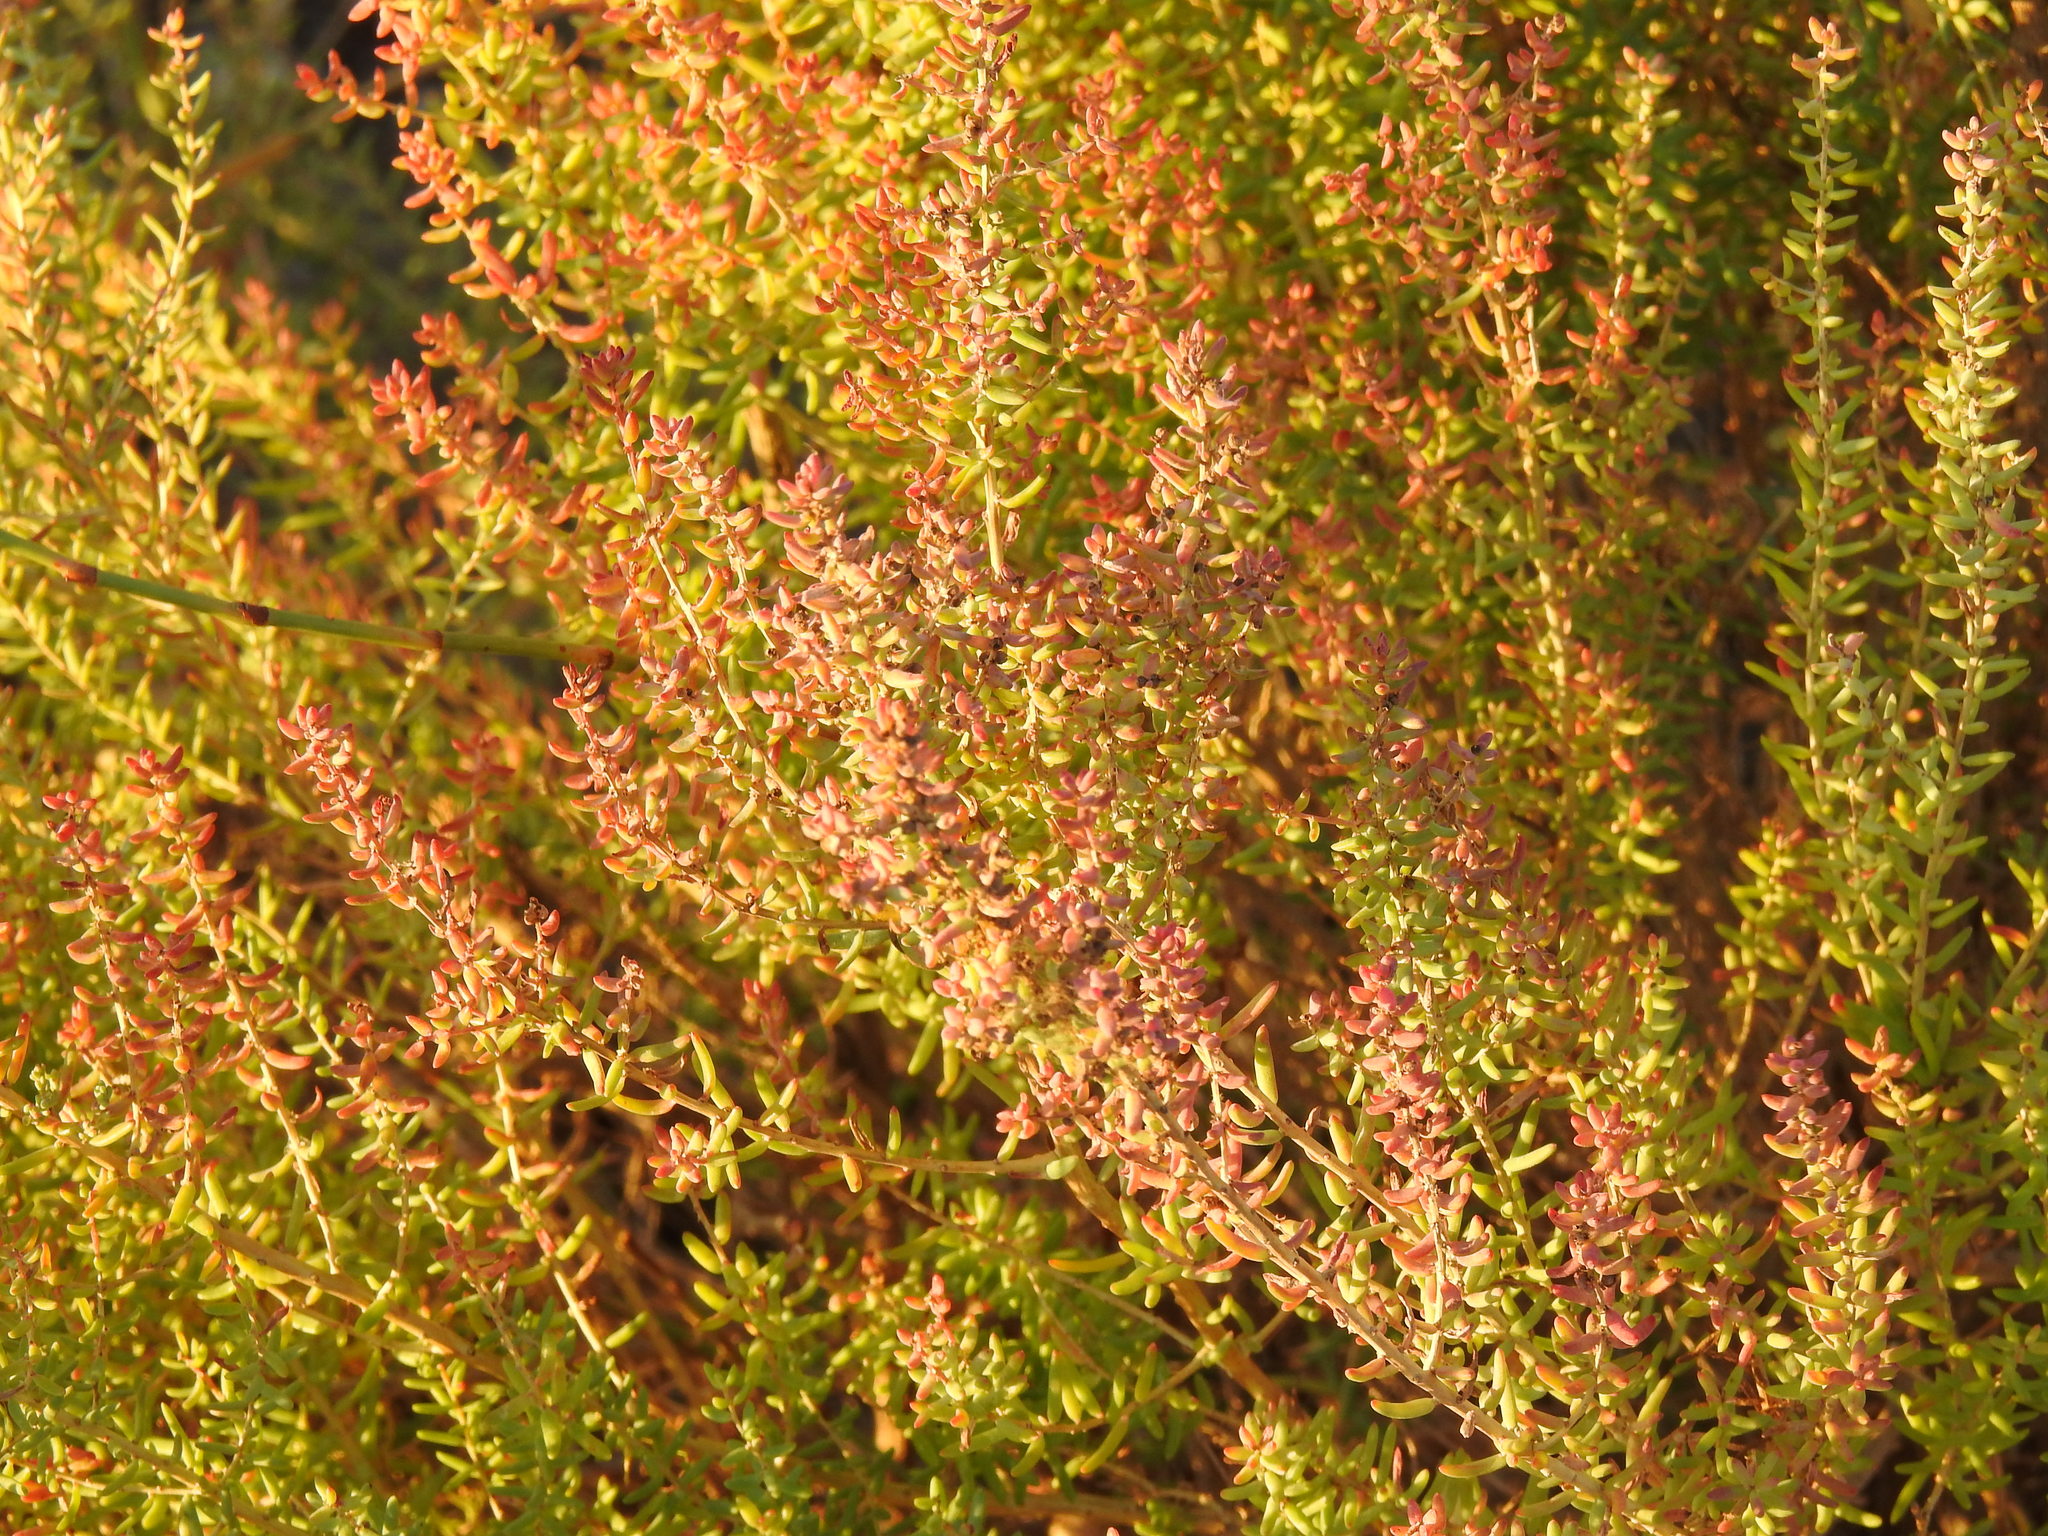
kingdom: Plantae
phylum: Tracheophyta
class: Magnoliopsida
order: Caryophyllales
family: Amaranthaceae
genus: Suaeda
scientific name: Suaeda vera
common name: Shrubby sea-blite
